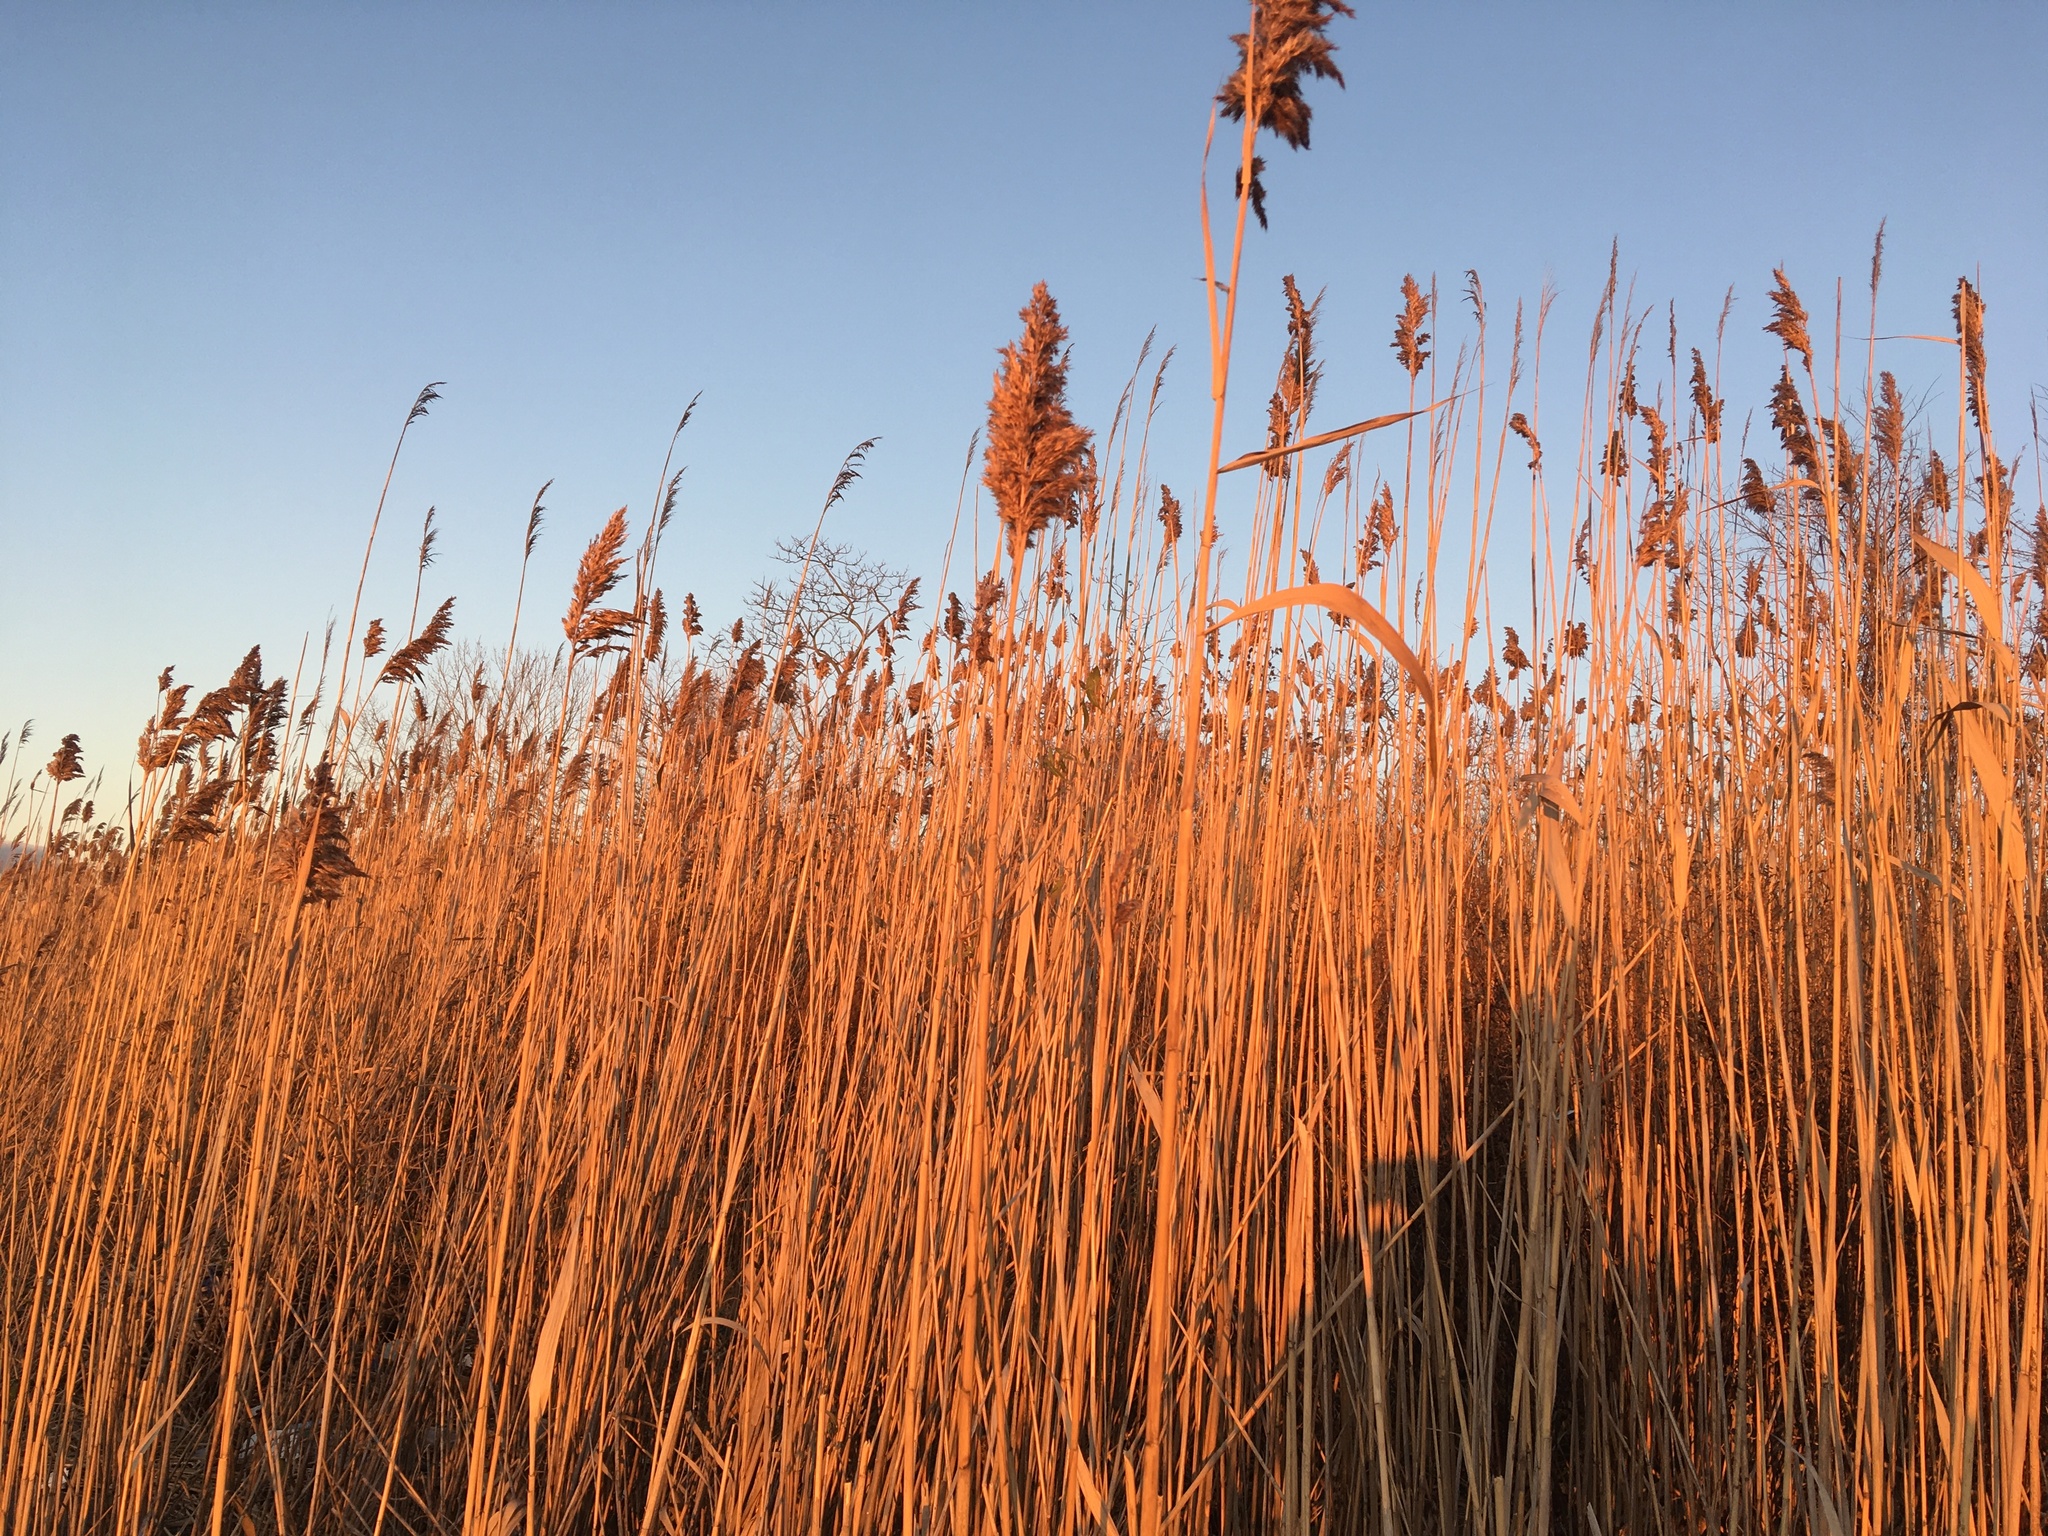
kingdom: Plantae
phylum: Tracheophyta
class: Liliopsida
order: Poales
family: Poaceae
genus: Phragmites
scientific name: Phragmites australis
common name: Common reed
